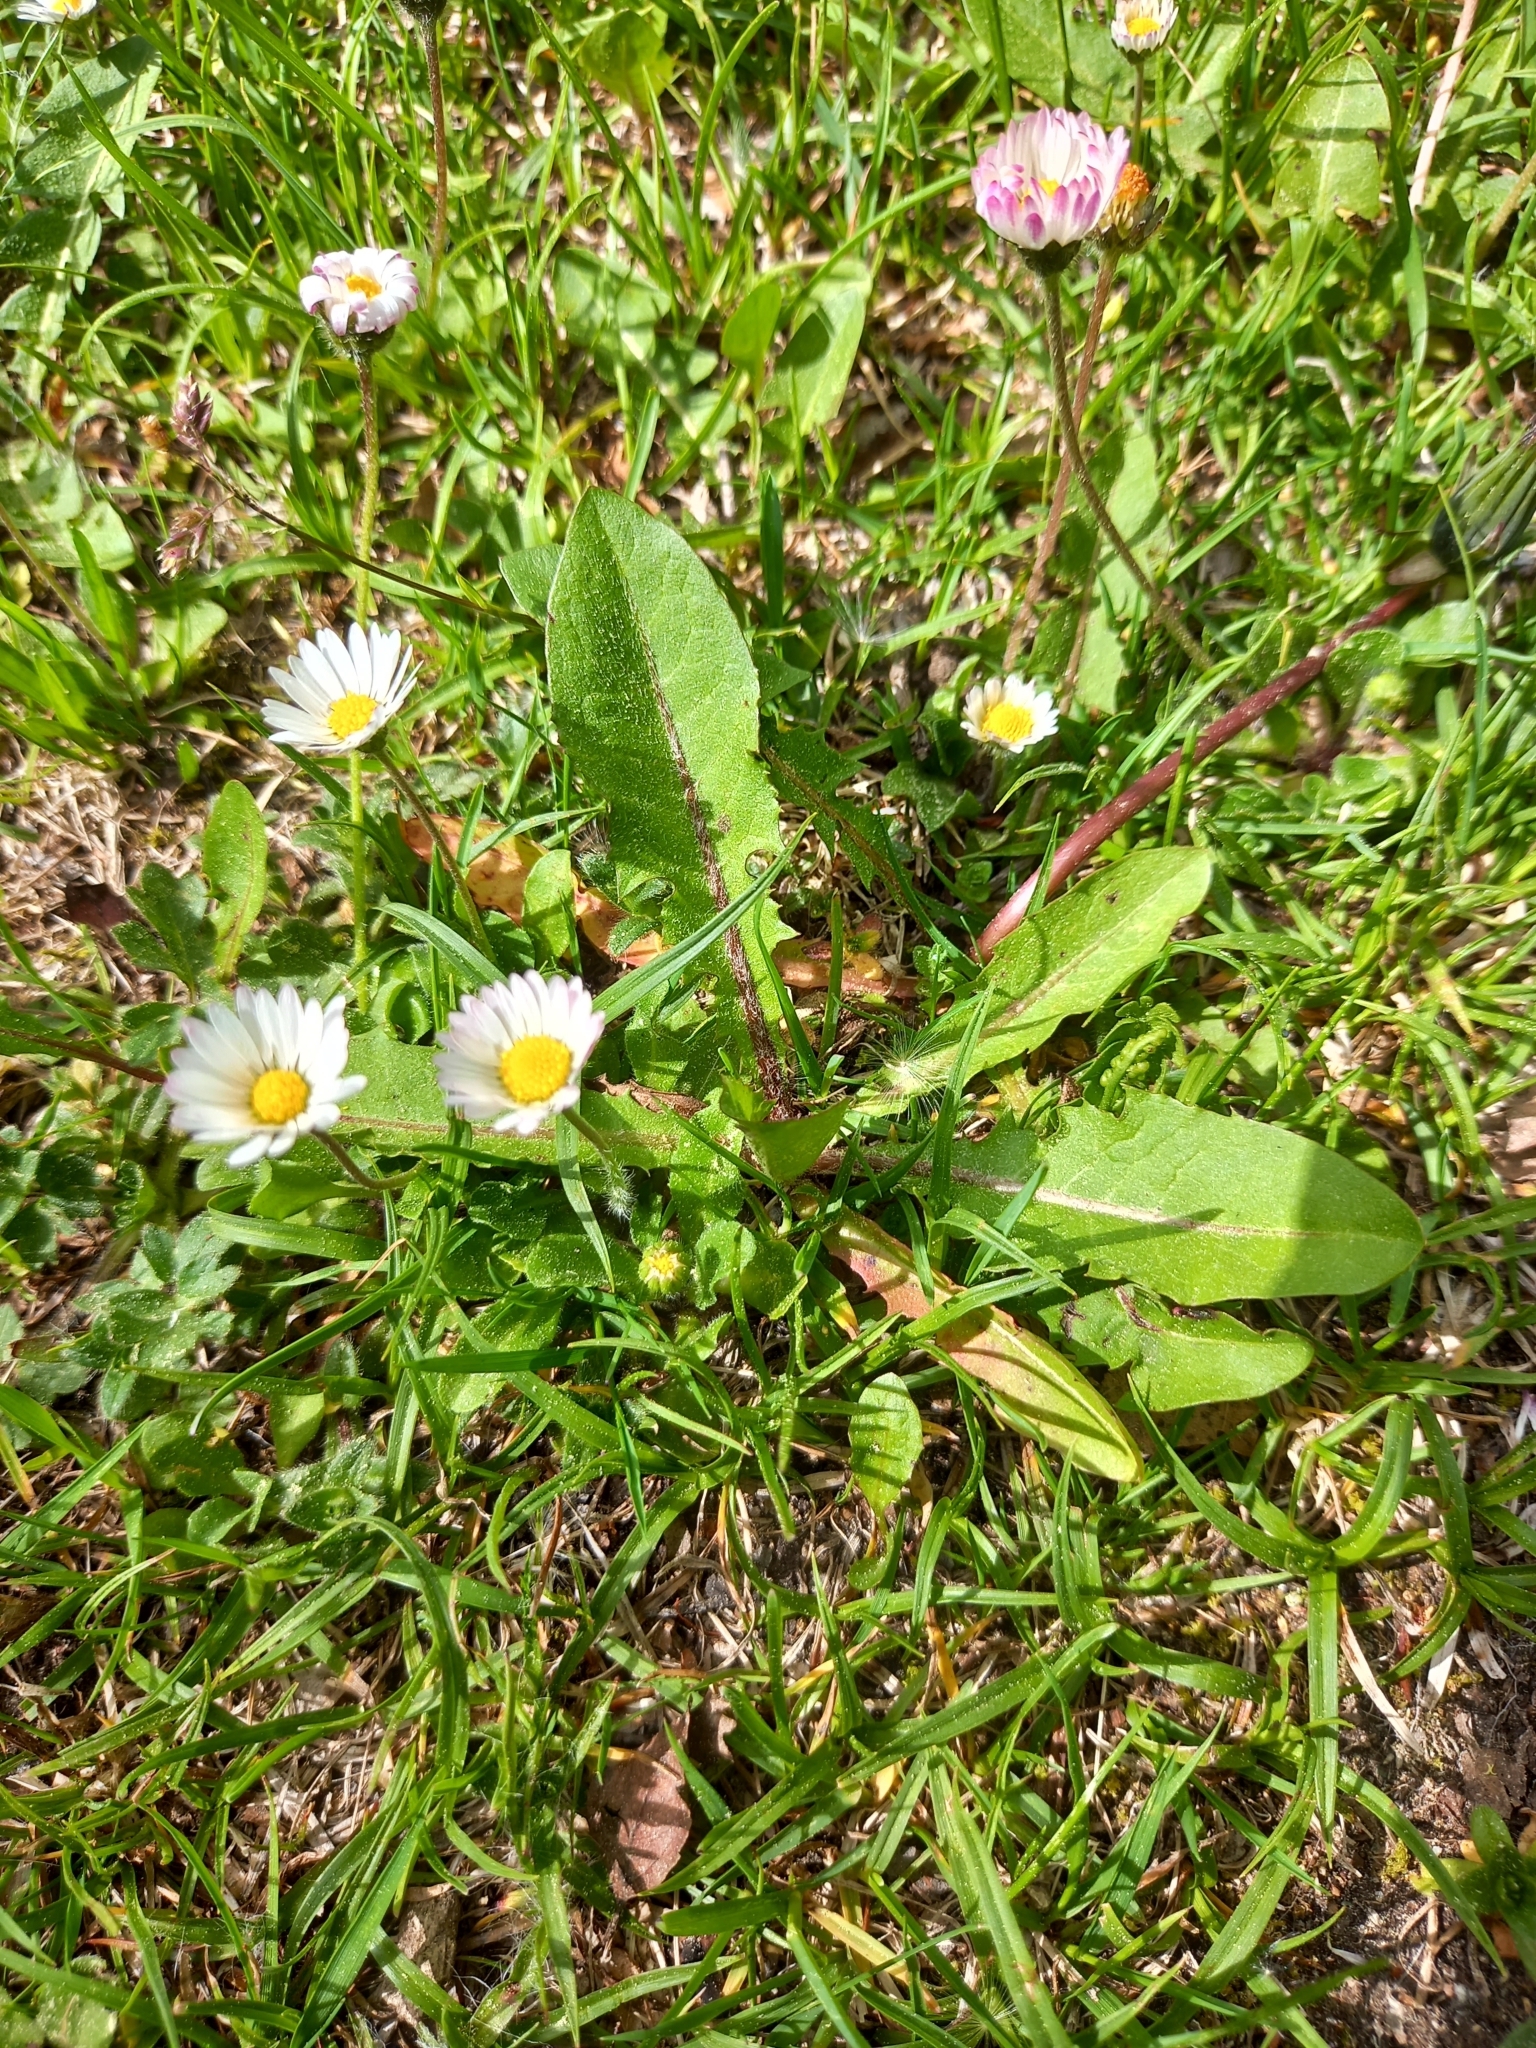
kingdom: Plantae
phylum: Tracheophyta
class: Magnoliopsida
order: Asterales
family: Asteraceae
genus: Bellis
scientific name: Bellis perennis
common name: Lawndaisy
